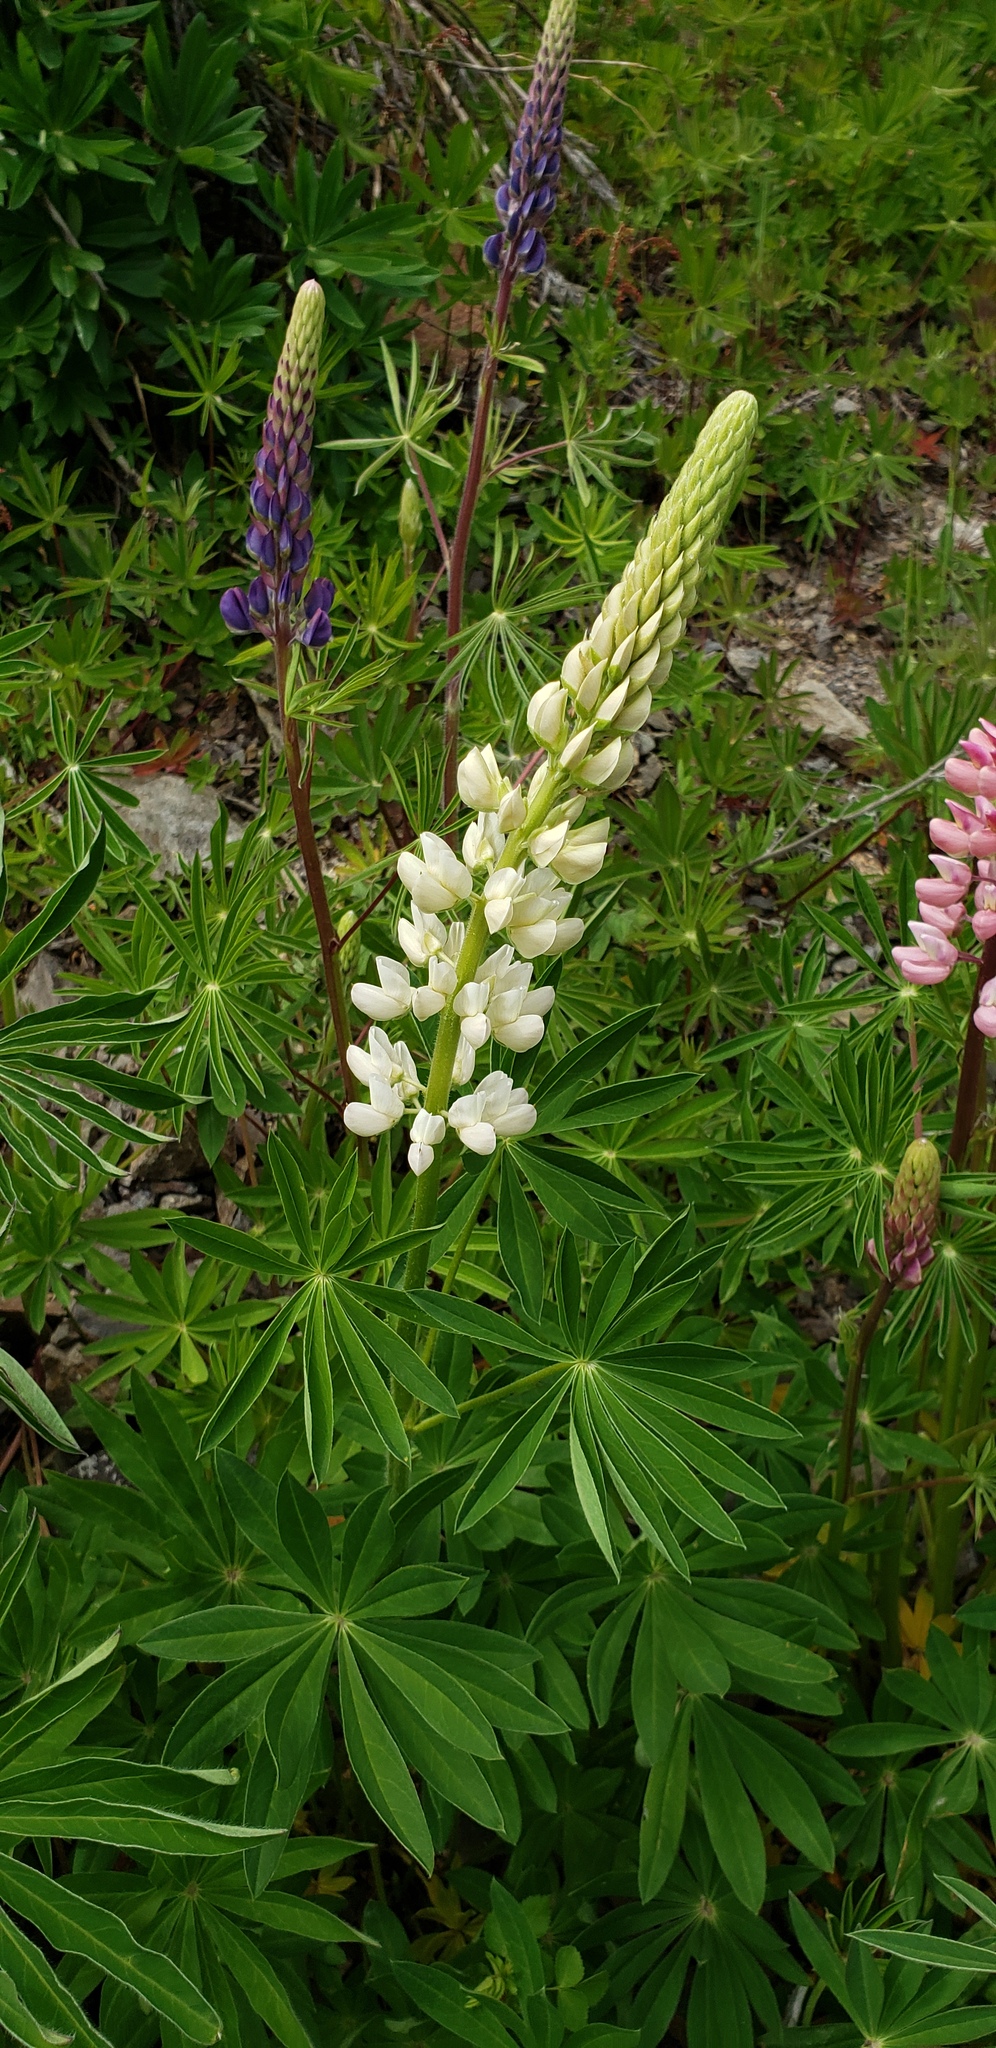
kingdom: Plantae
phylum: Tracheophyta
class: Magnoliopsida
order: Fabales
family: Fabaceae
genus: Lupinus
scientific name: Lupinus polyphyllus
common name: Garden lupin
